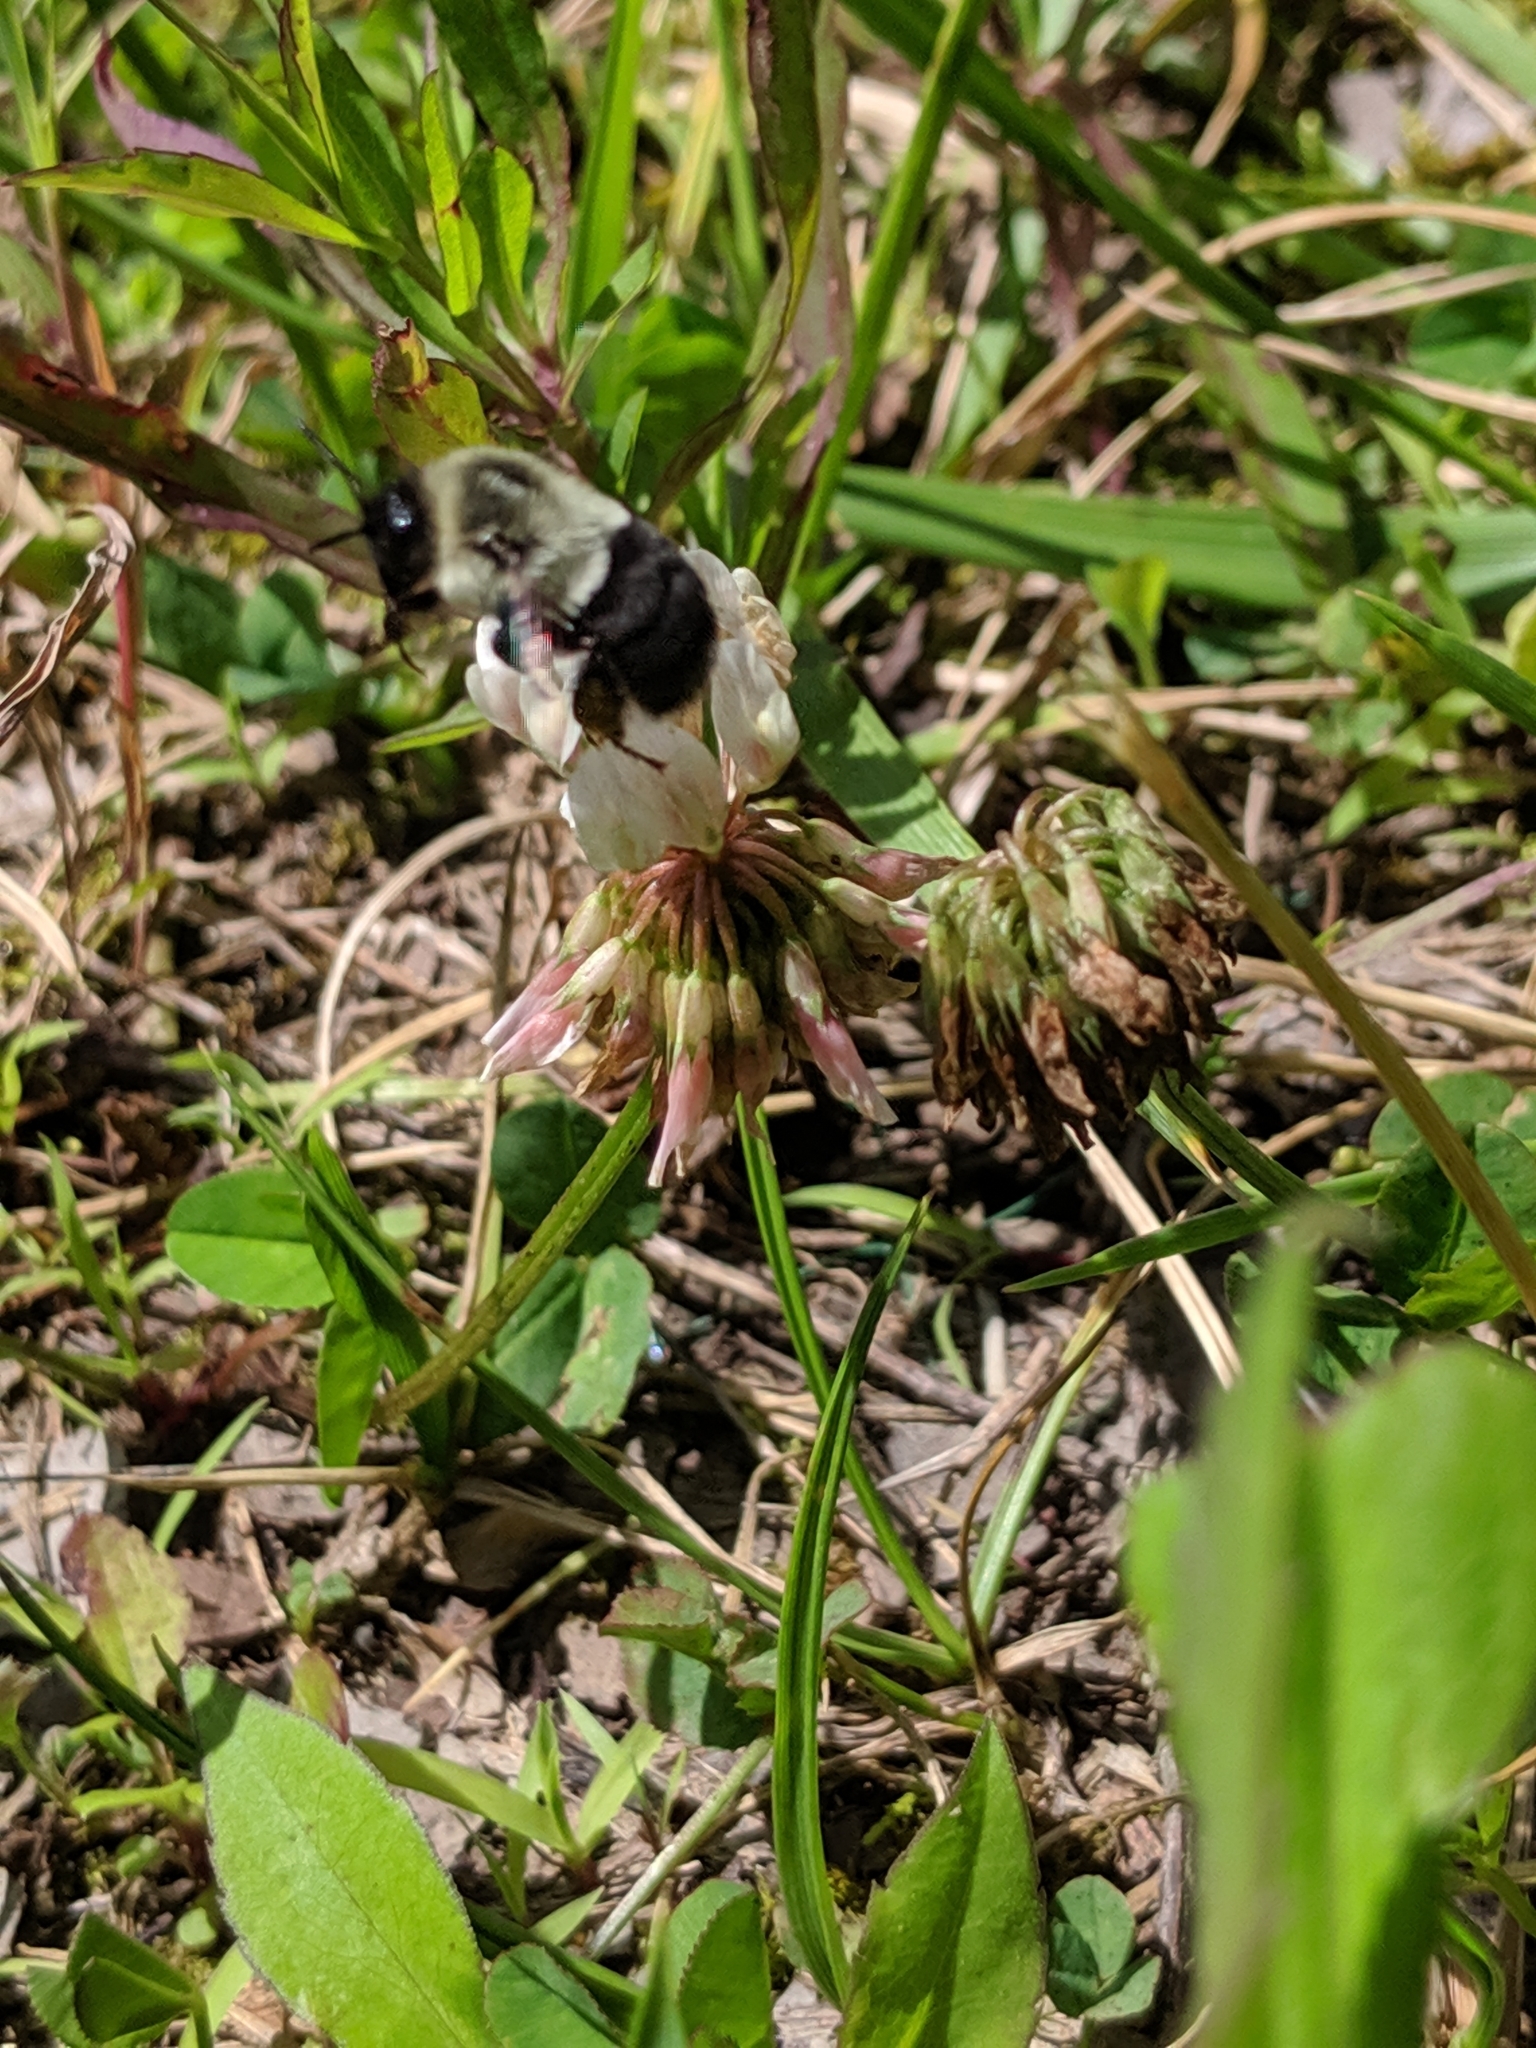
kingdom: Animalia
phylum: Arthropoda
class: Insecta
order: Hymenoptera
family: Apidae
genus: Bombus
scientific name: Bombus impatiens
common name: Common eastern bumble bee
